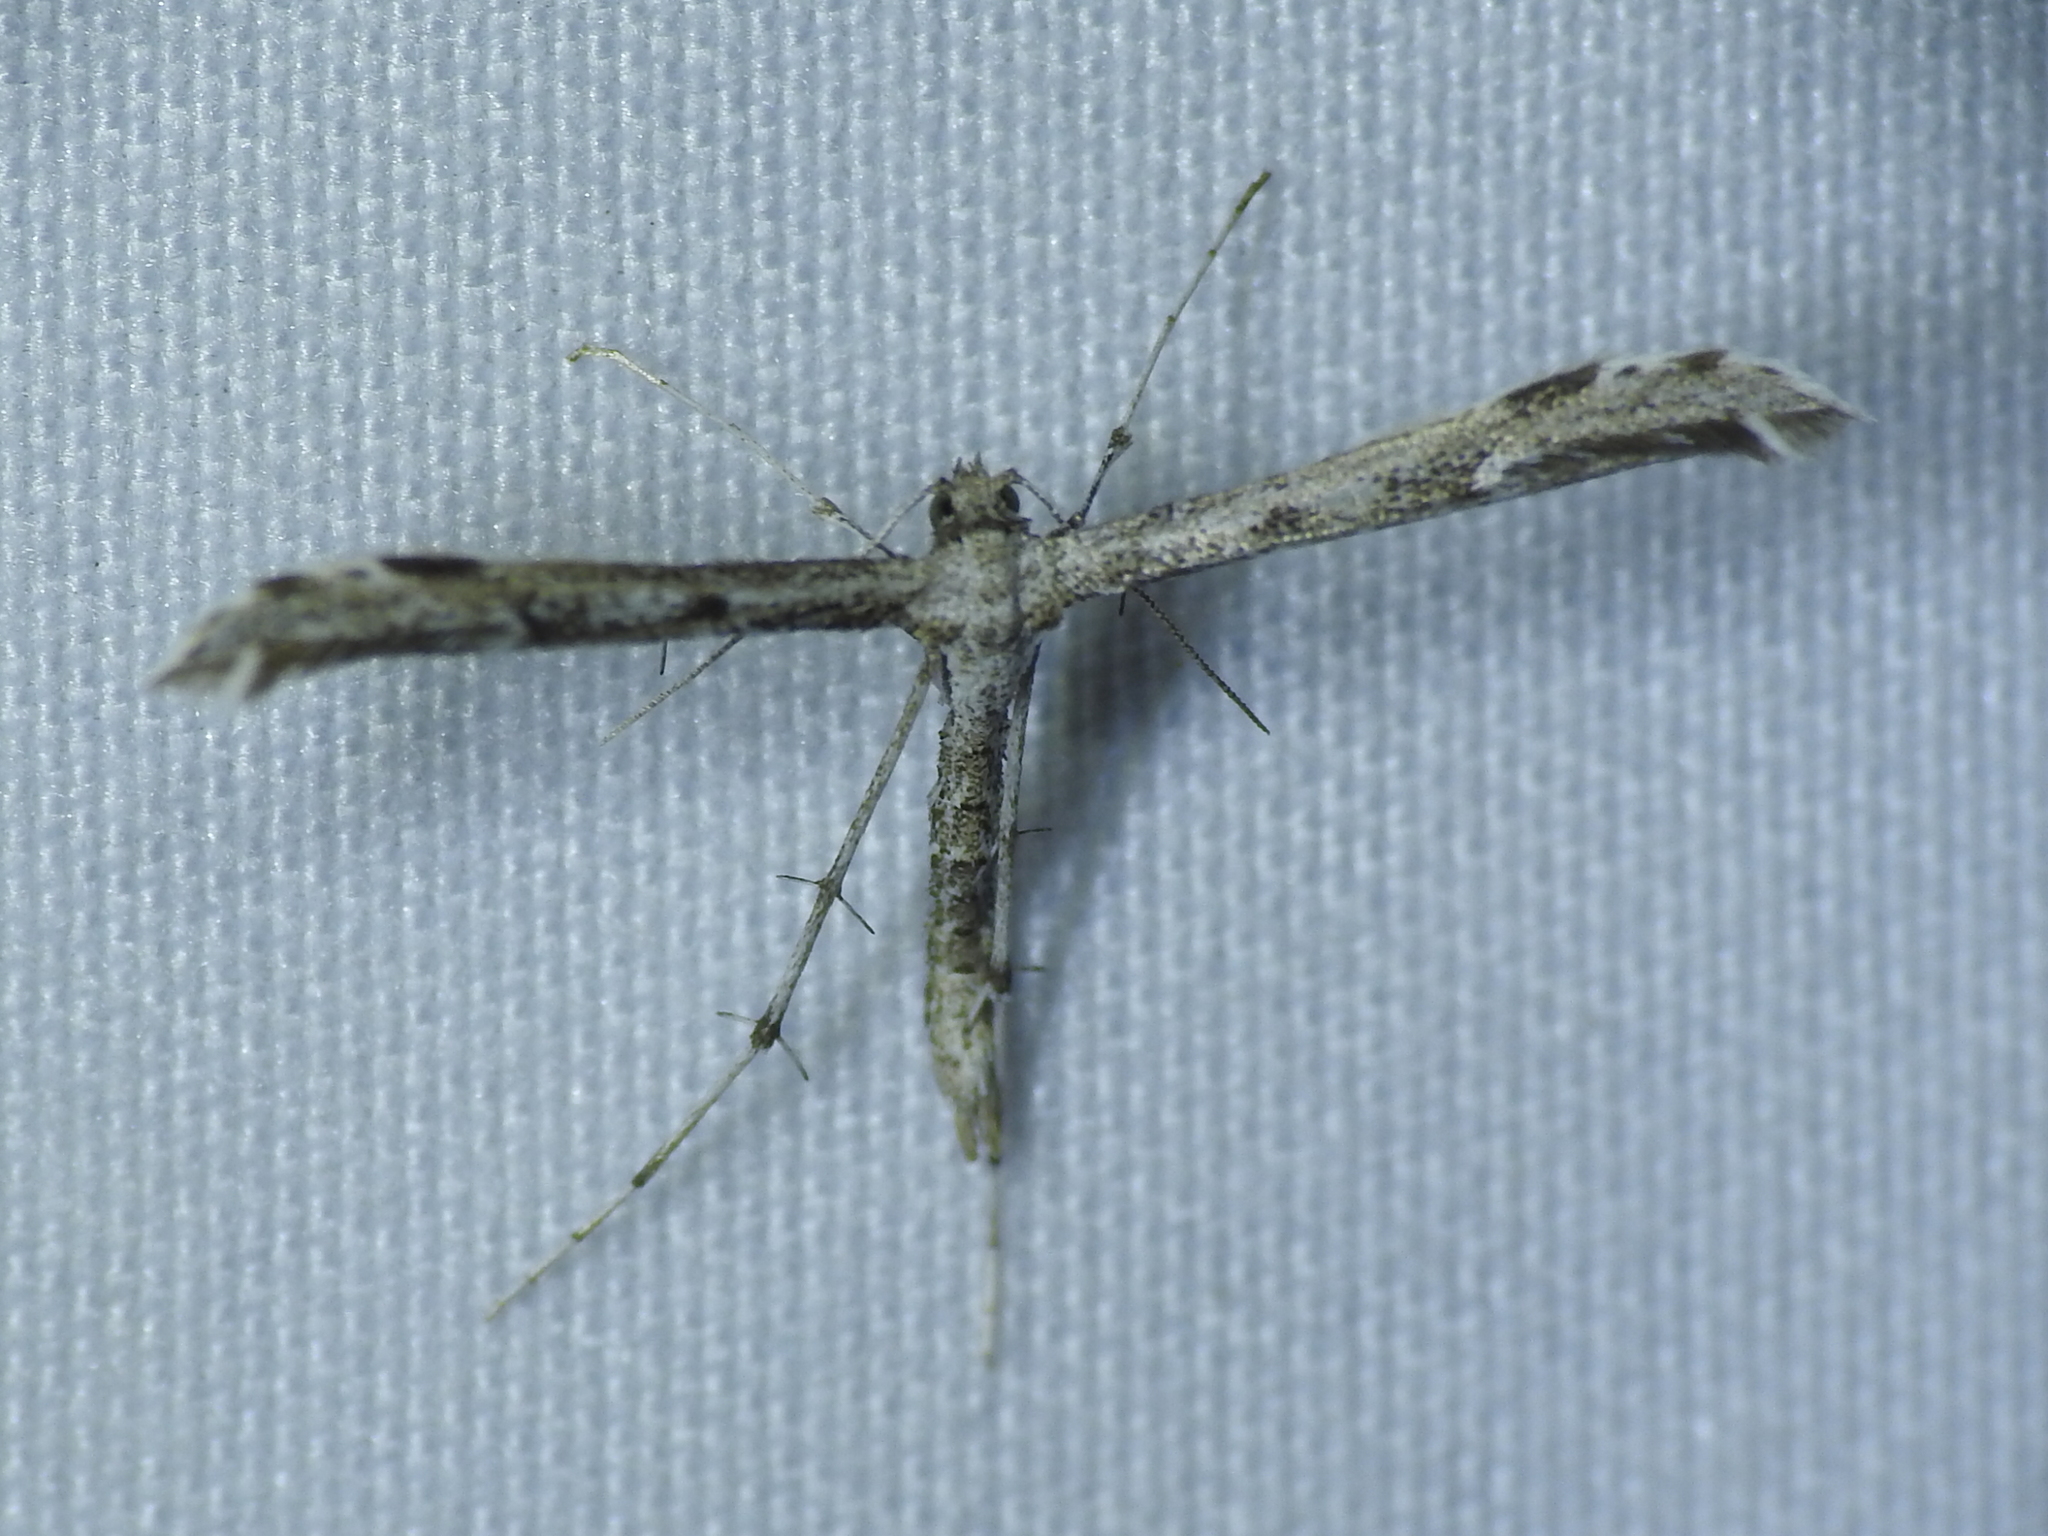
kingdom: Animalia
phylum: Arthropoda
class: Insecta
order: Lepidoptera
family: Pterophoridae
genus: Hellinsia
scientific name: Hellinsia inquinatus
